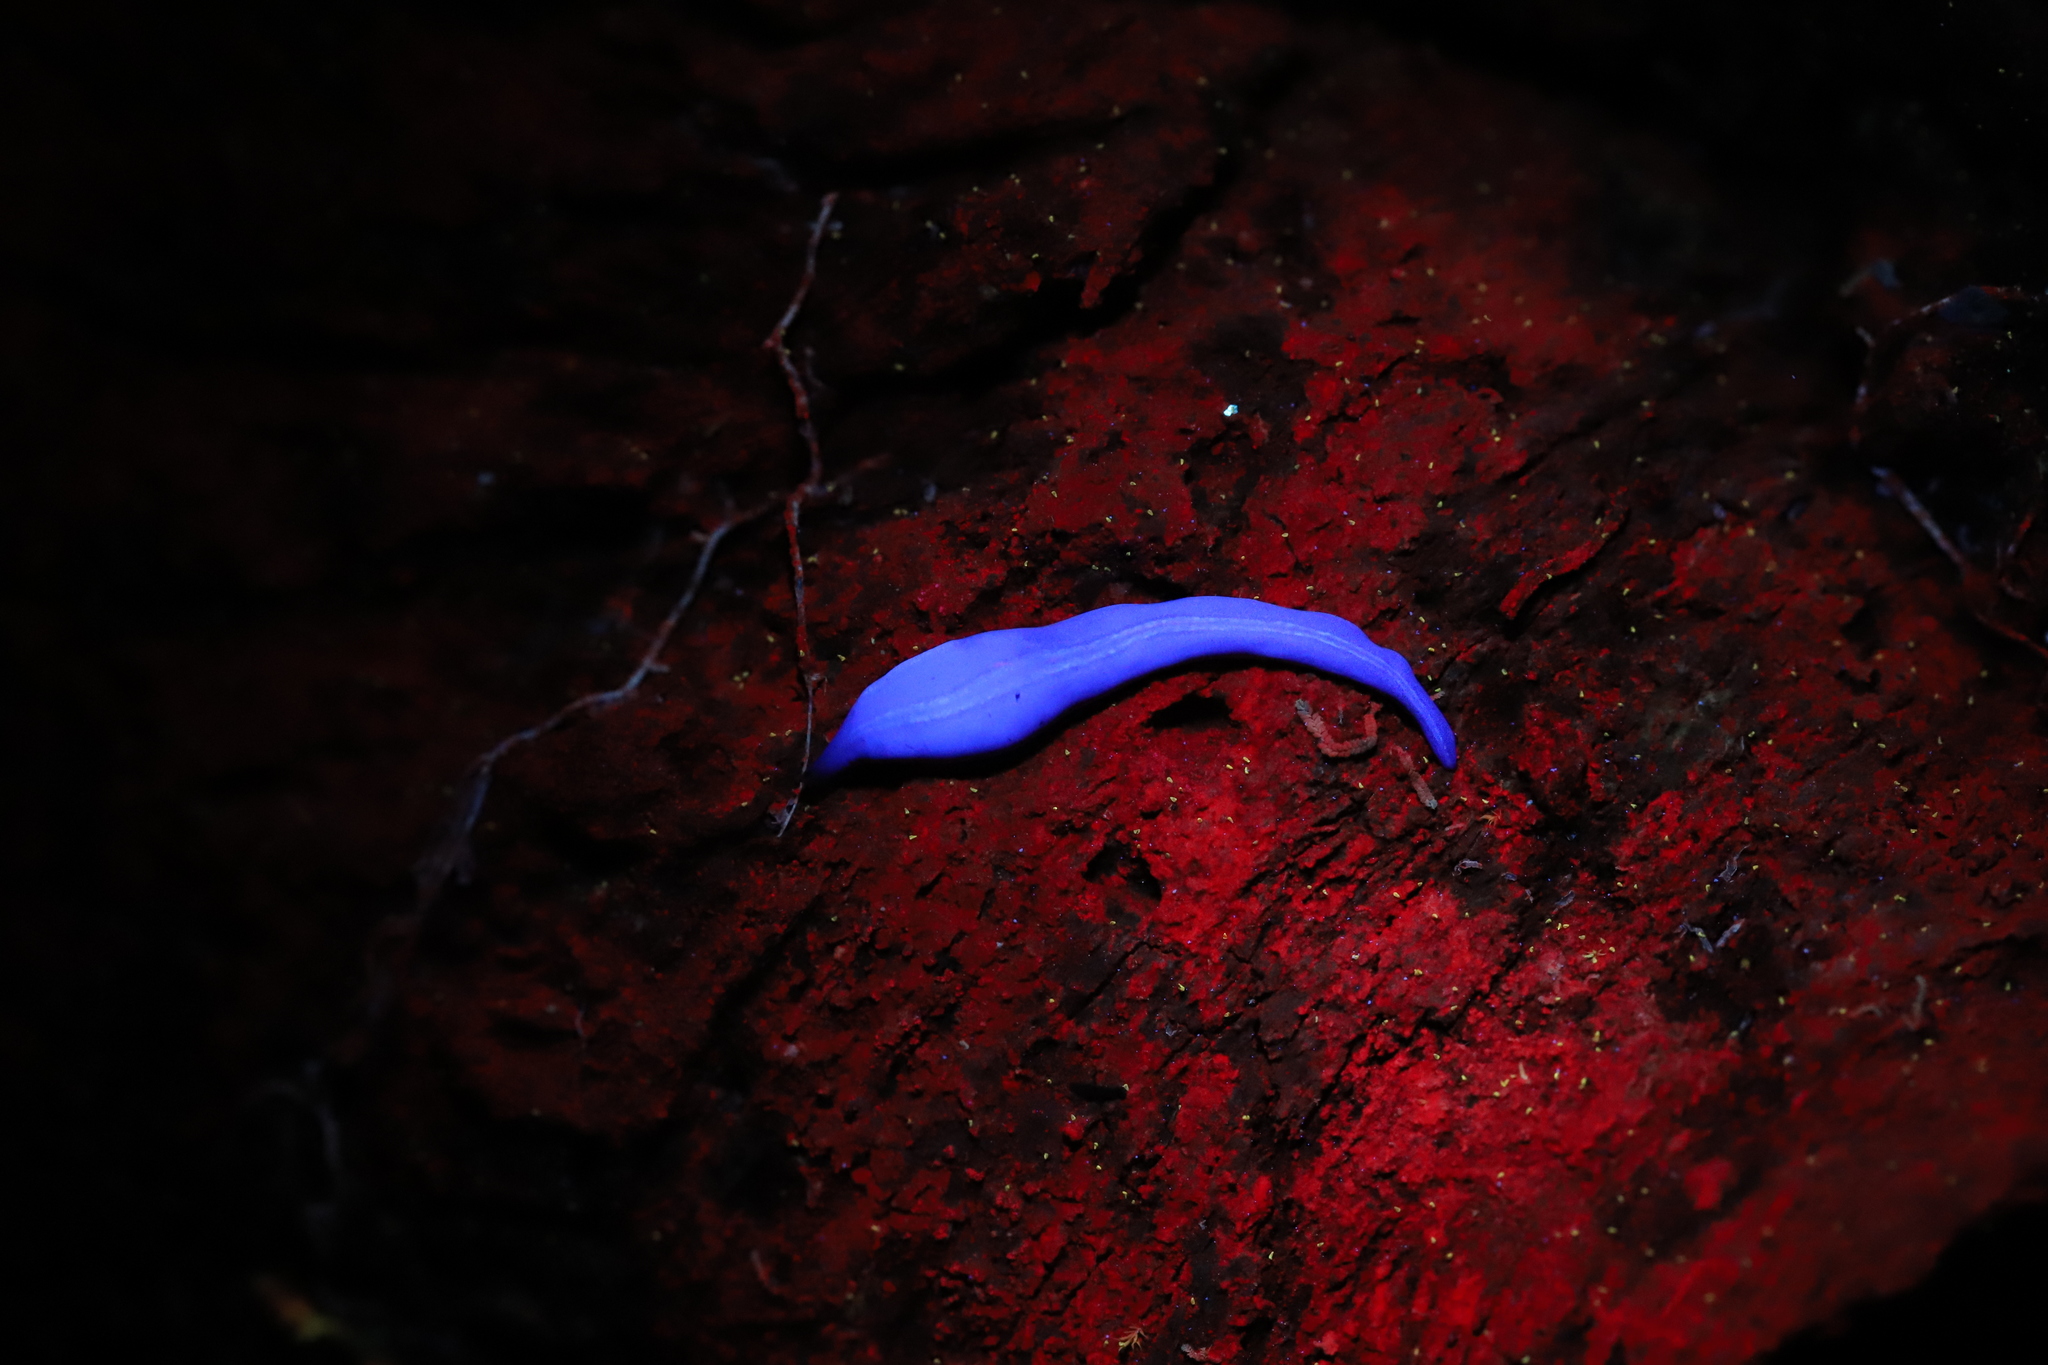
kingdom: Animalia
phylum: Platyhelminthes
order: Tricladida
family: Geoplanidae
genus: Lenkunya
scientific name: Lenkunya adae
